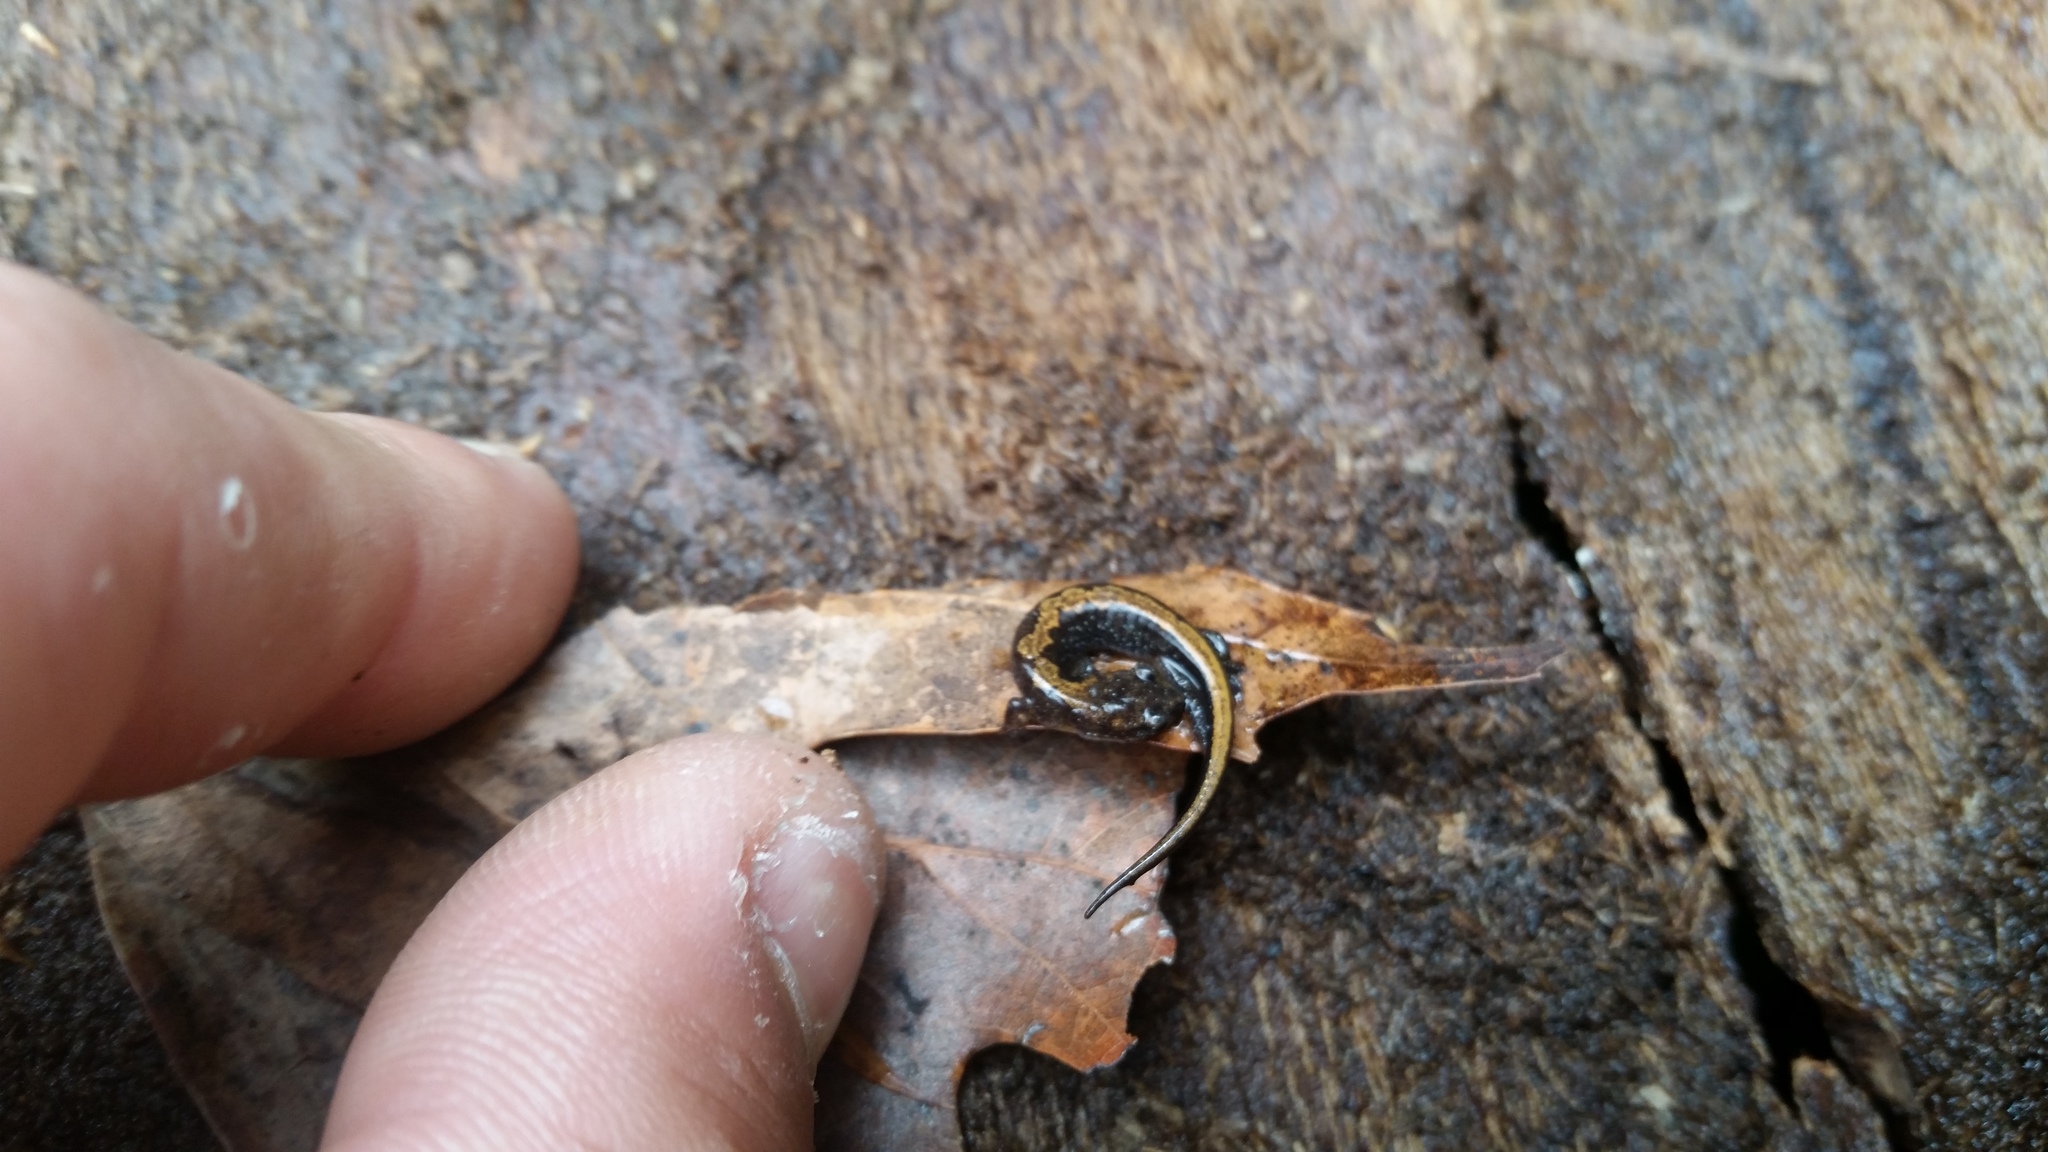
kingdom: Animalia
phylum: Chordata
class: Amphibia
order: Caudata
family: Plethodontidae
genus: Plethodon
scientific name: Plethodon dorsalis
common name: Northern zigzag salamander
